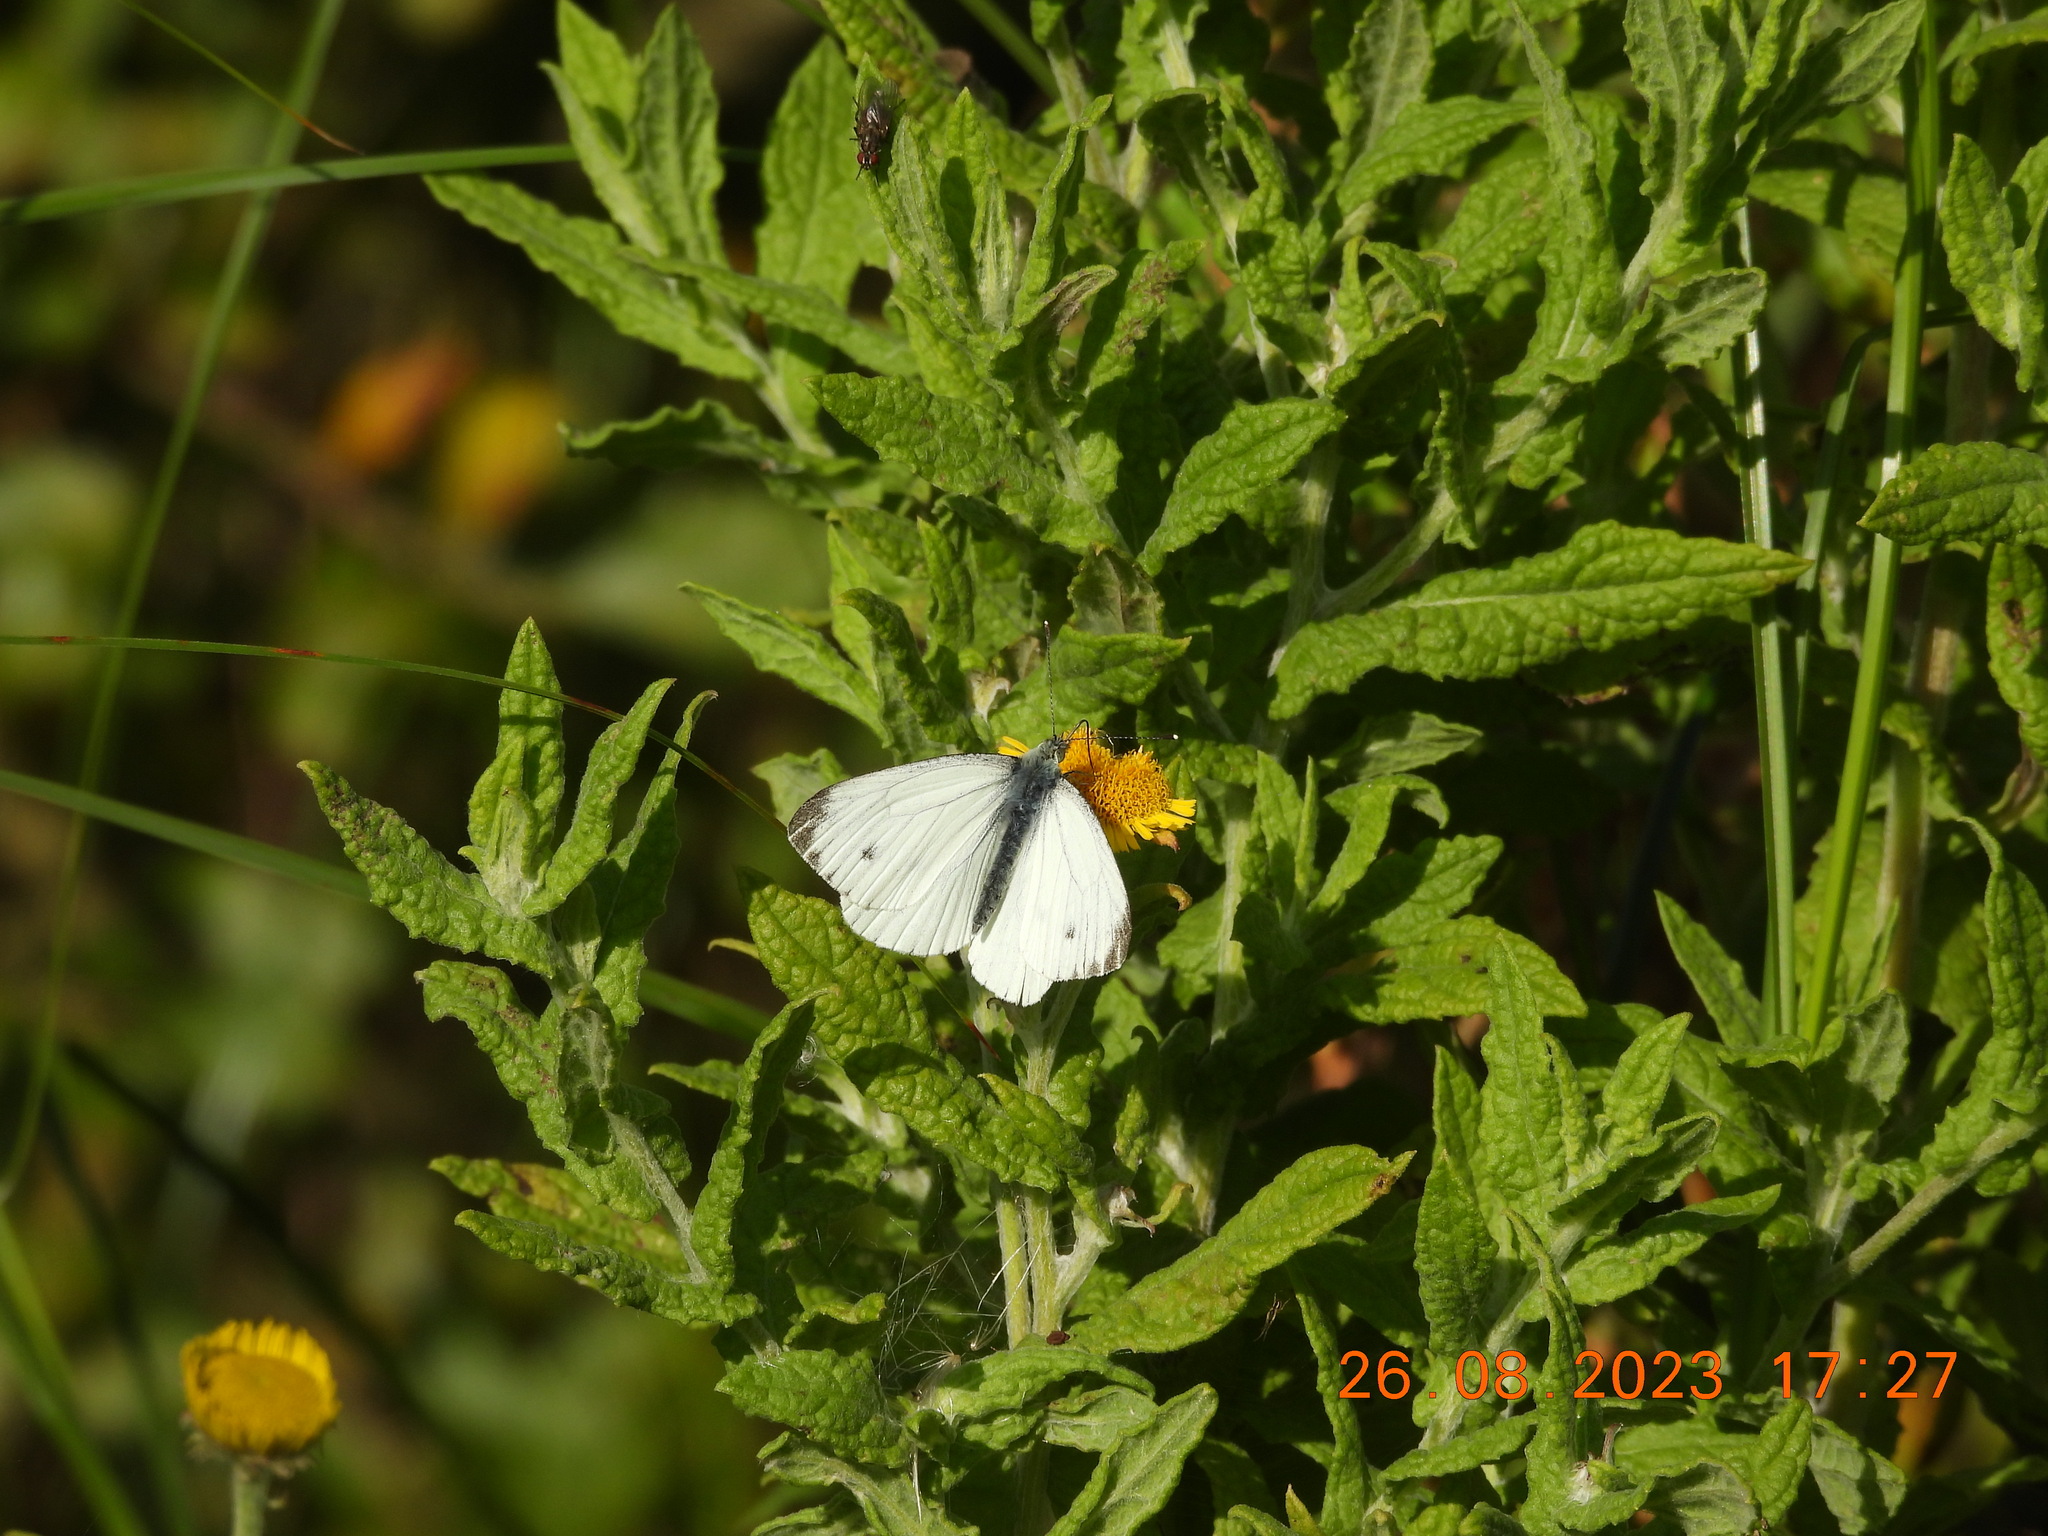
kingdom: Animalia
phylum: Arthropoda
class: Insecta
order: Lepidoptera
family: Pieridae
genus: Pieris
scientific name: Pieris napi
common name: Green-veined white
